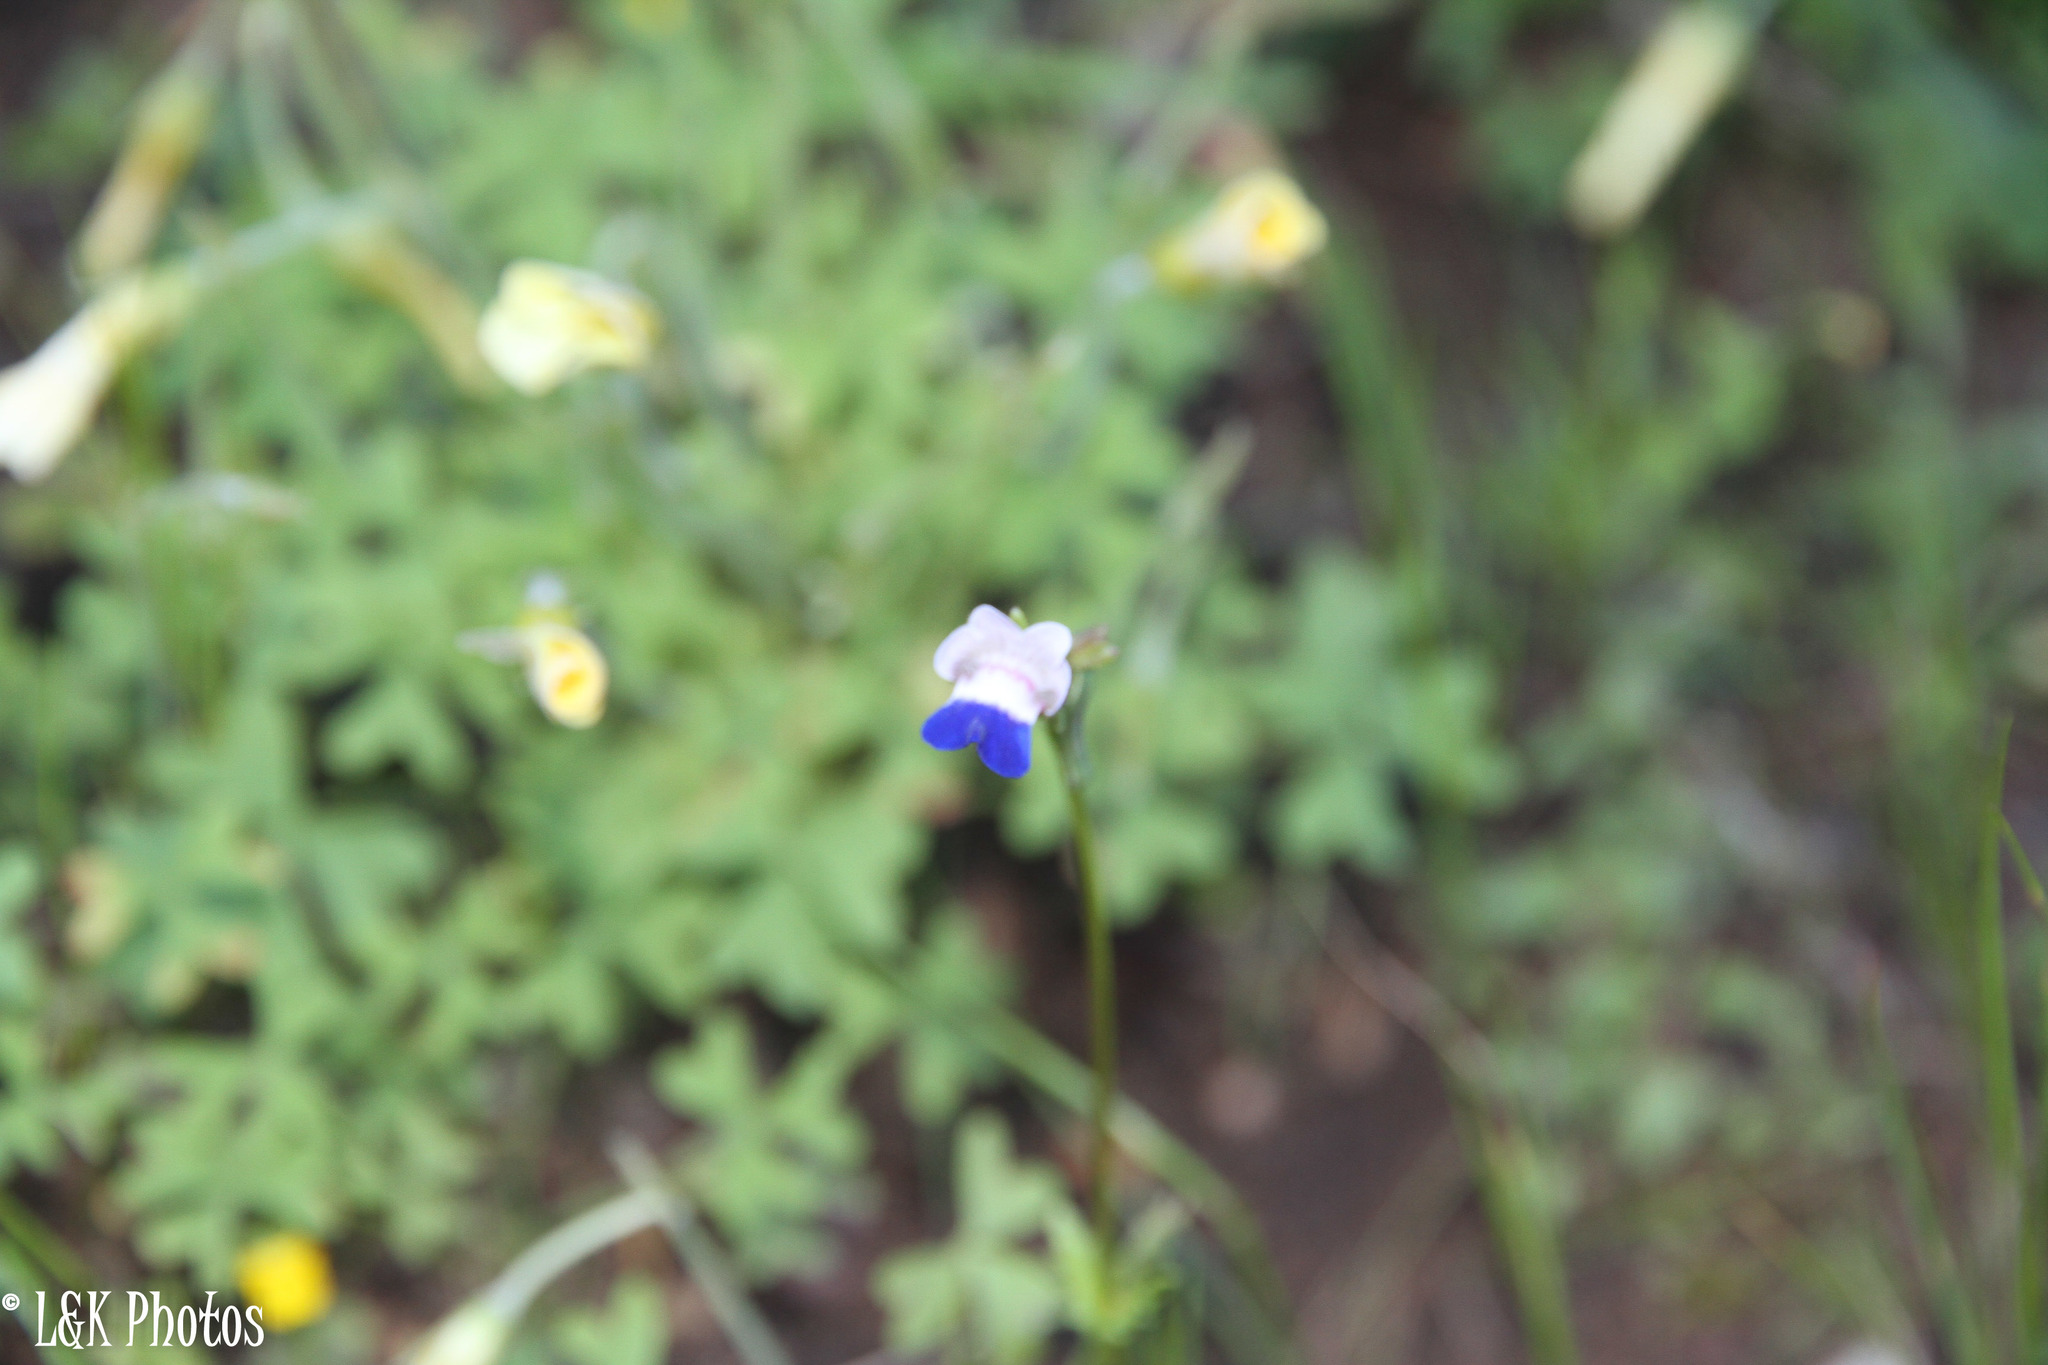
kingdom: Plantae
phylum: Tracheophyta
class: Magnoliopsida
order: Lamiales
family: Scrophulariaceae
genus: Nemesia
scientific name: Nemesia barbata
